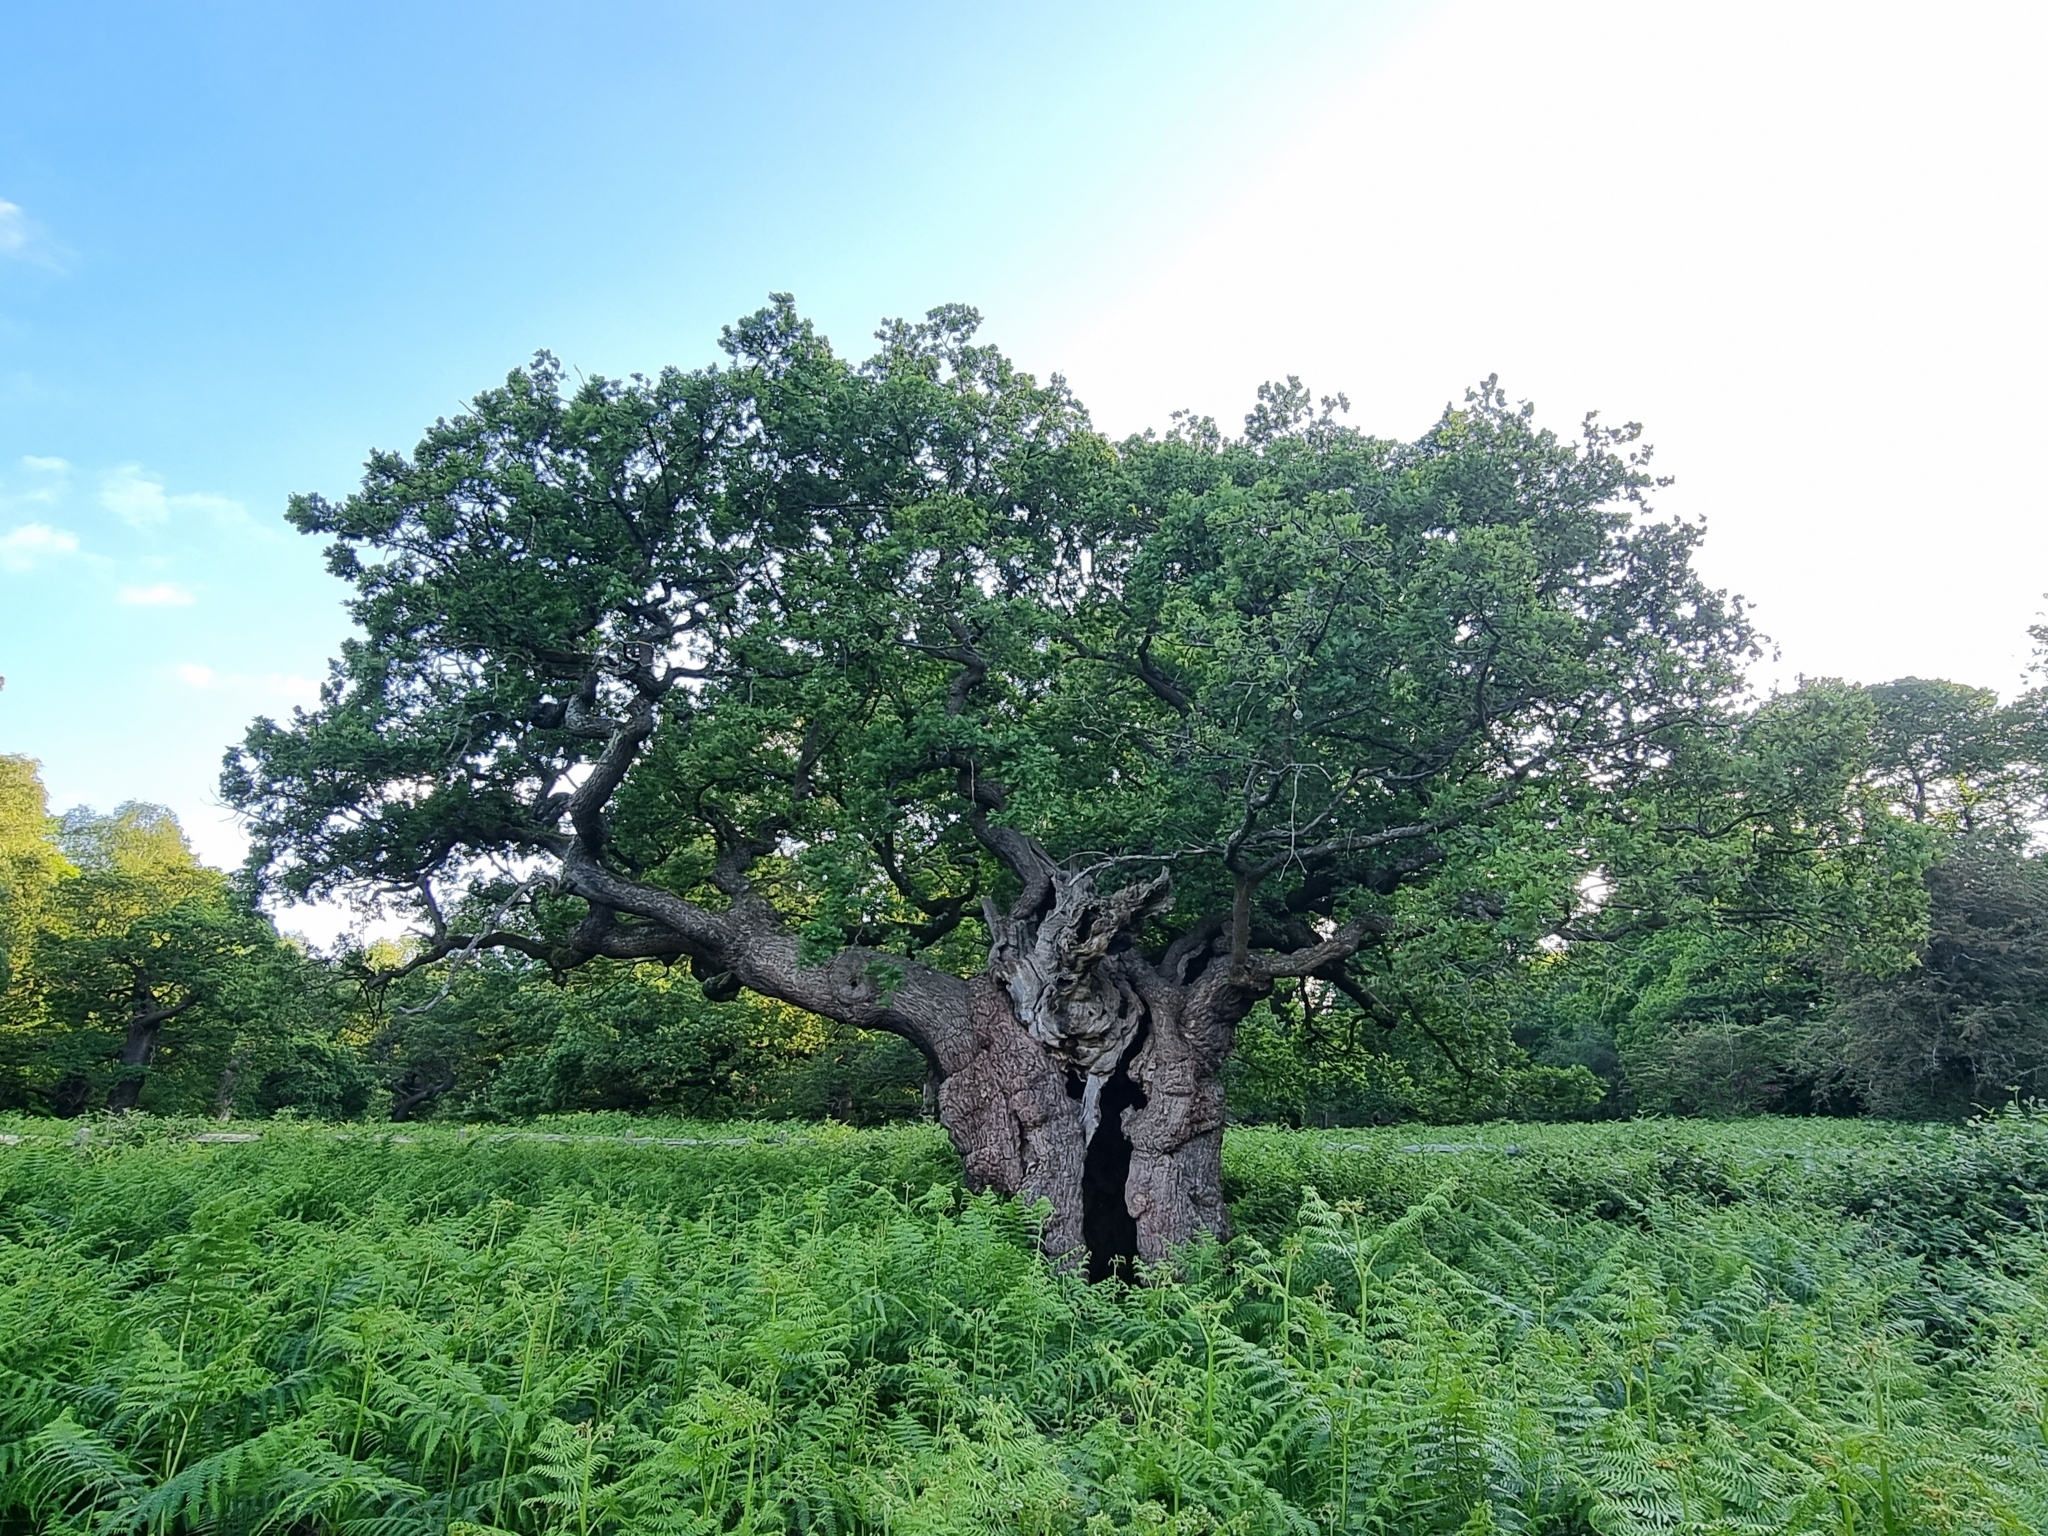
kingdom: Plantae
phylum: Tracheophyta
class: Magnoliopsida
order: Fagales
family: Fagaceae
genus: Quercus
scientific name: Quercus robur
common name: Pedunculate oak
